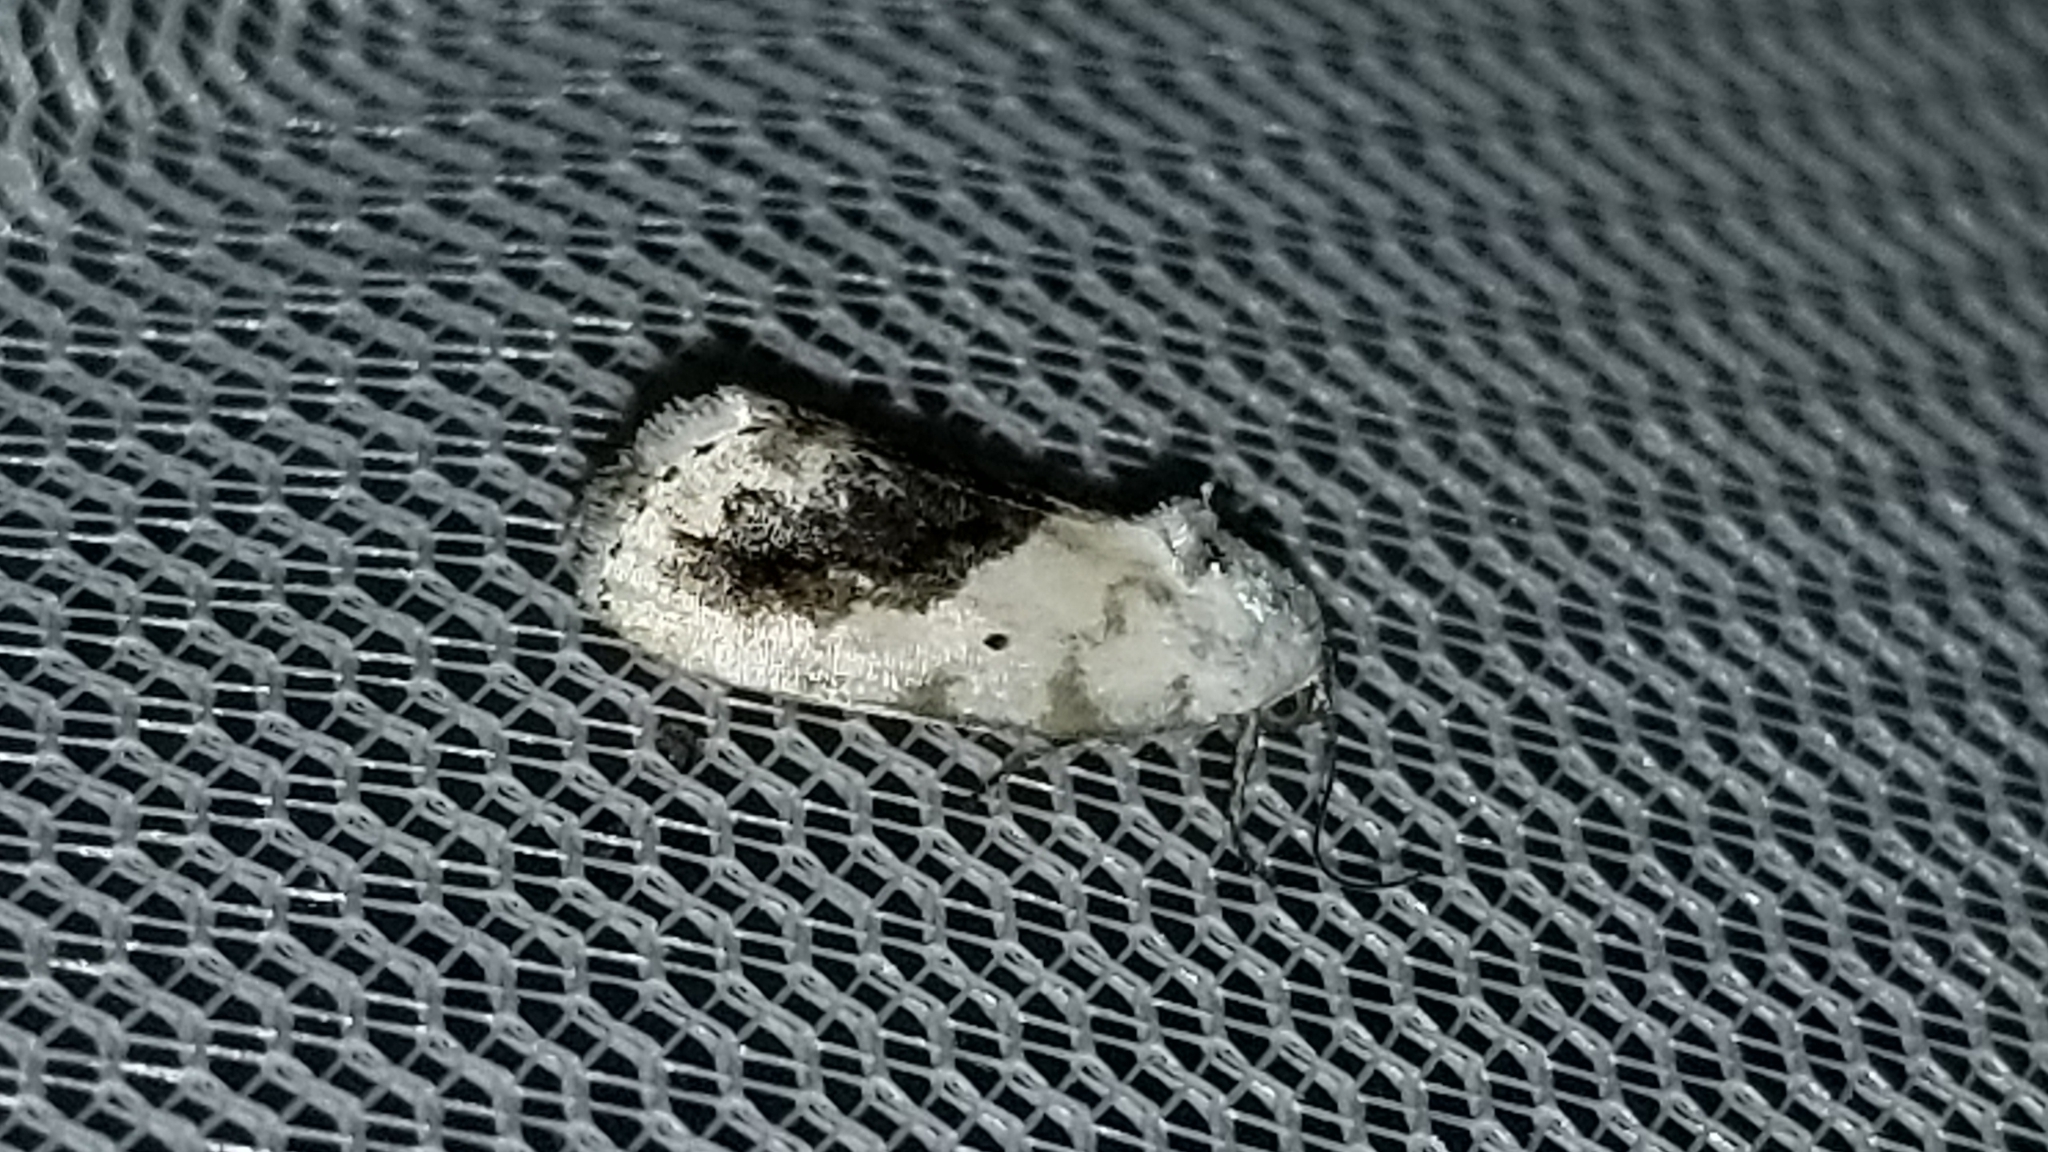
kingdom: Animalia
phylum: Arthropoda
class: Insecta
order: Lepidoptera
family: Noctuidae
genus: Acontia
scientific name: Acontia erastrioides
